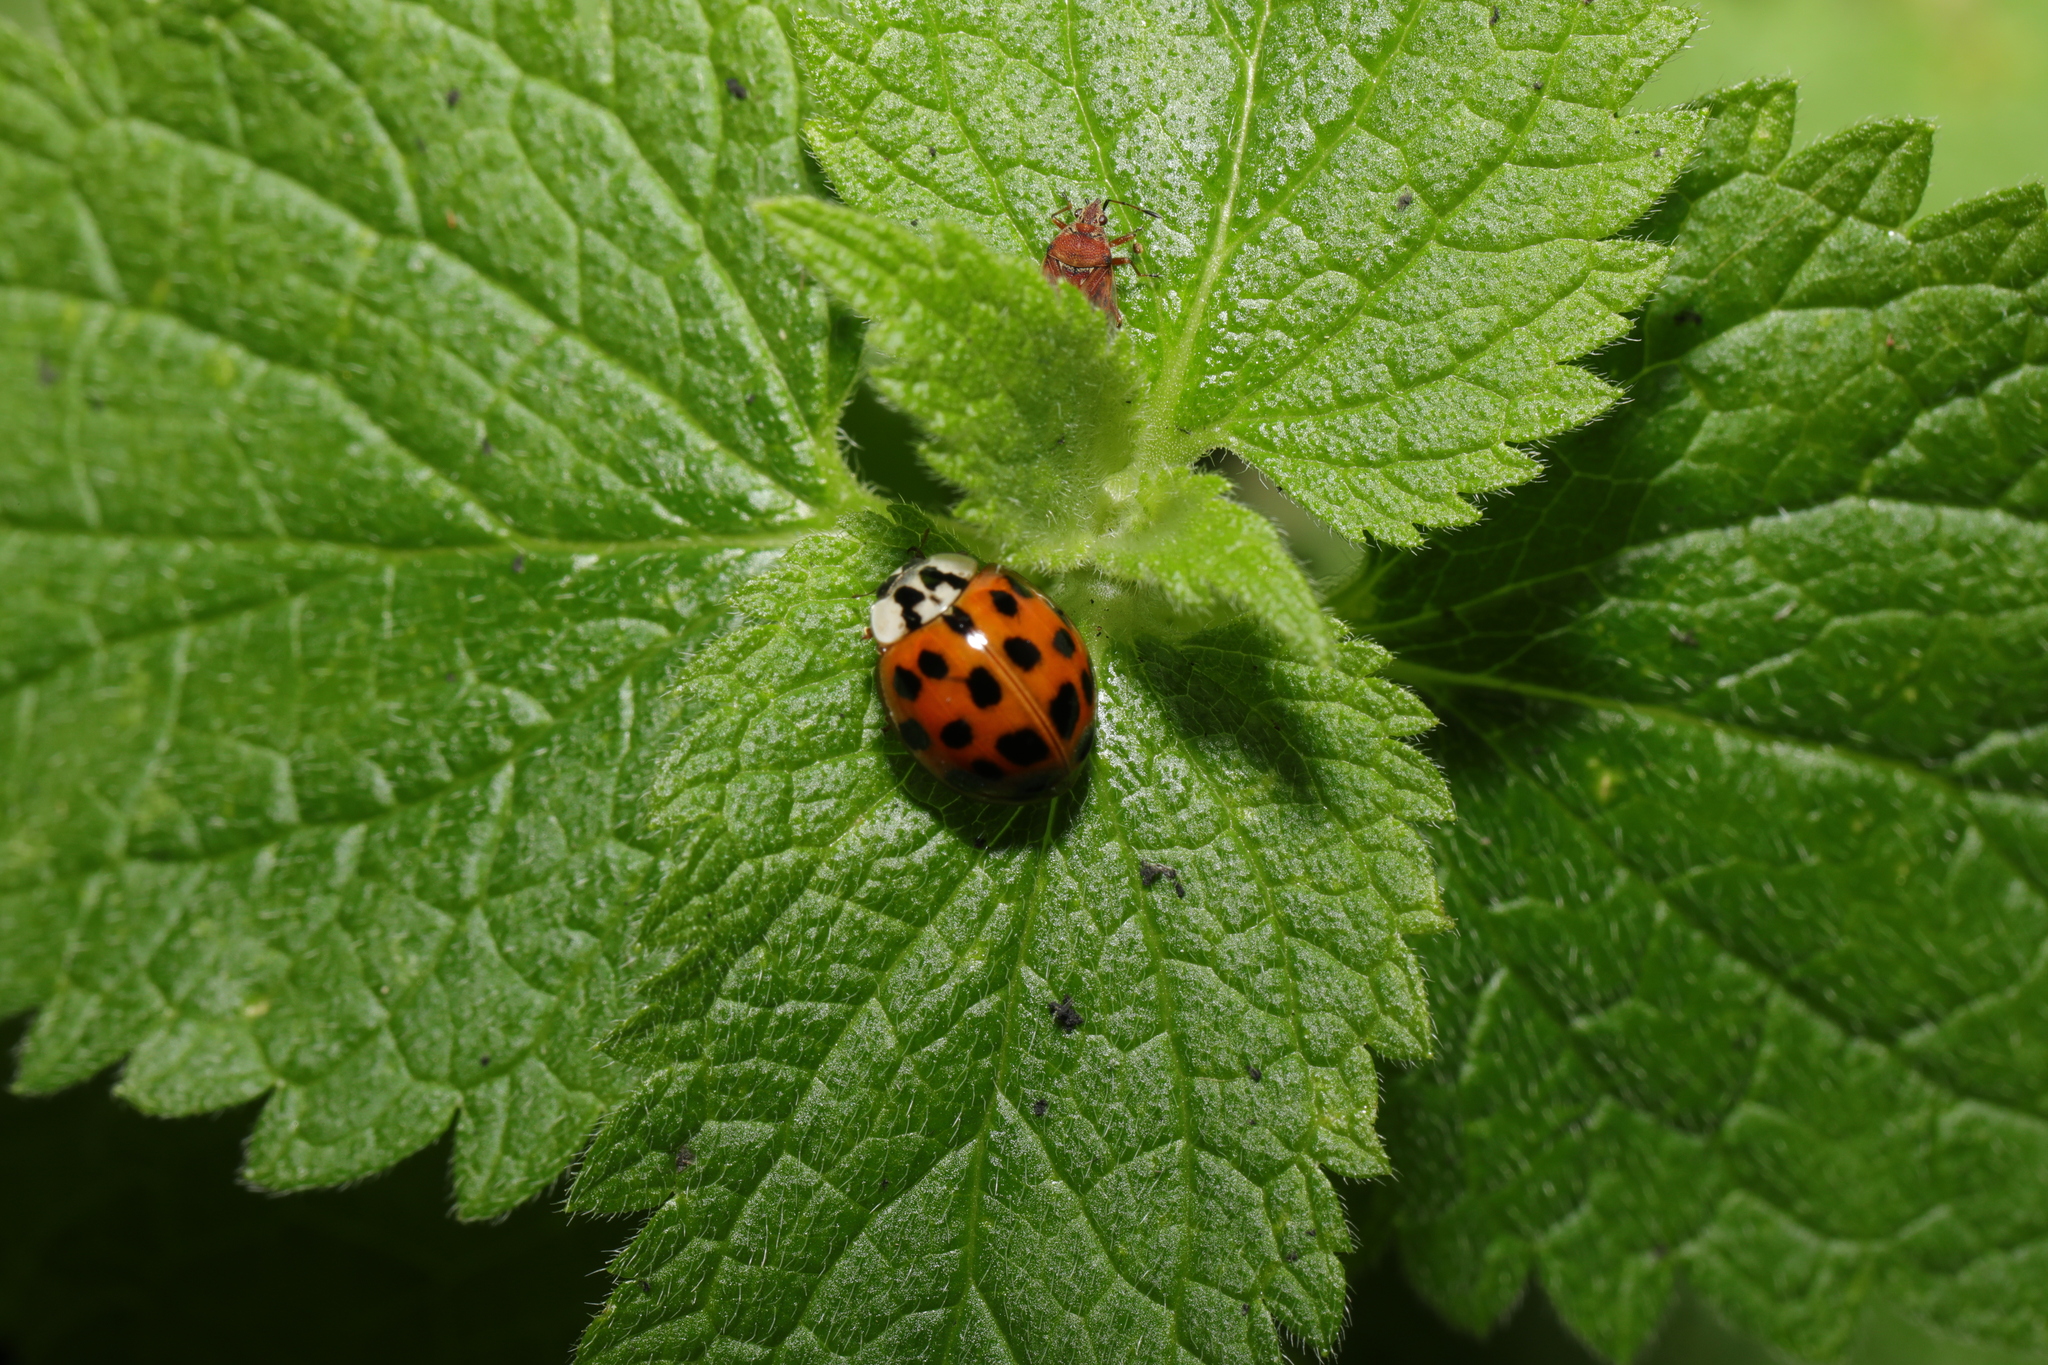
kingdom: Animalia
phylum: Arthropoda
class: Insecta
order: Coleoptera
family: Coccinellidae
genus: Harmonia
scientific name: Harmonia axyridis
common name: Harlequin ladybird
